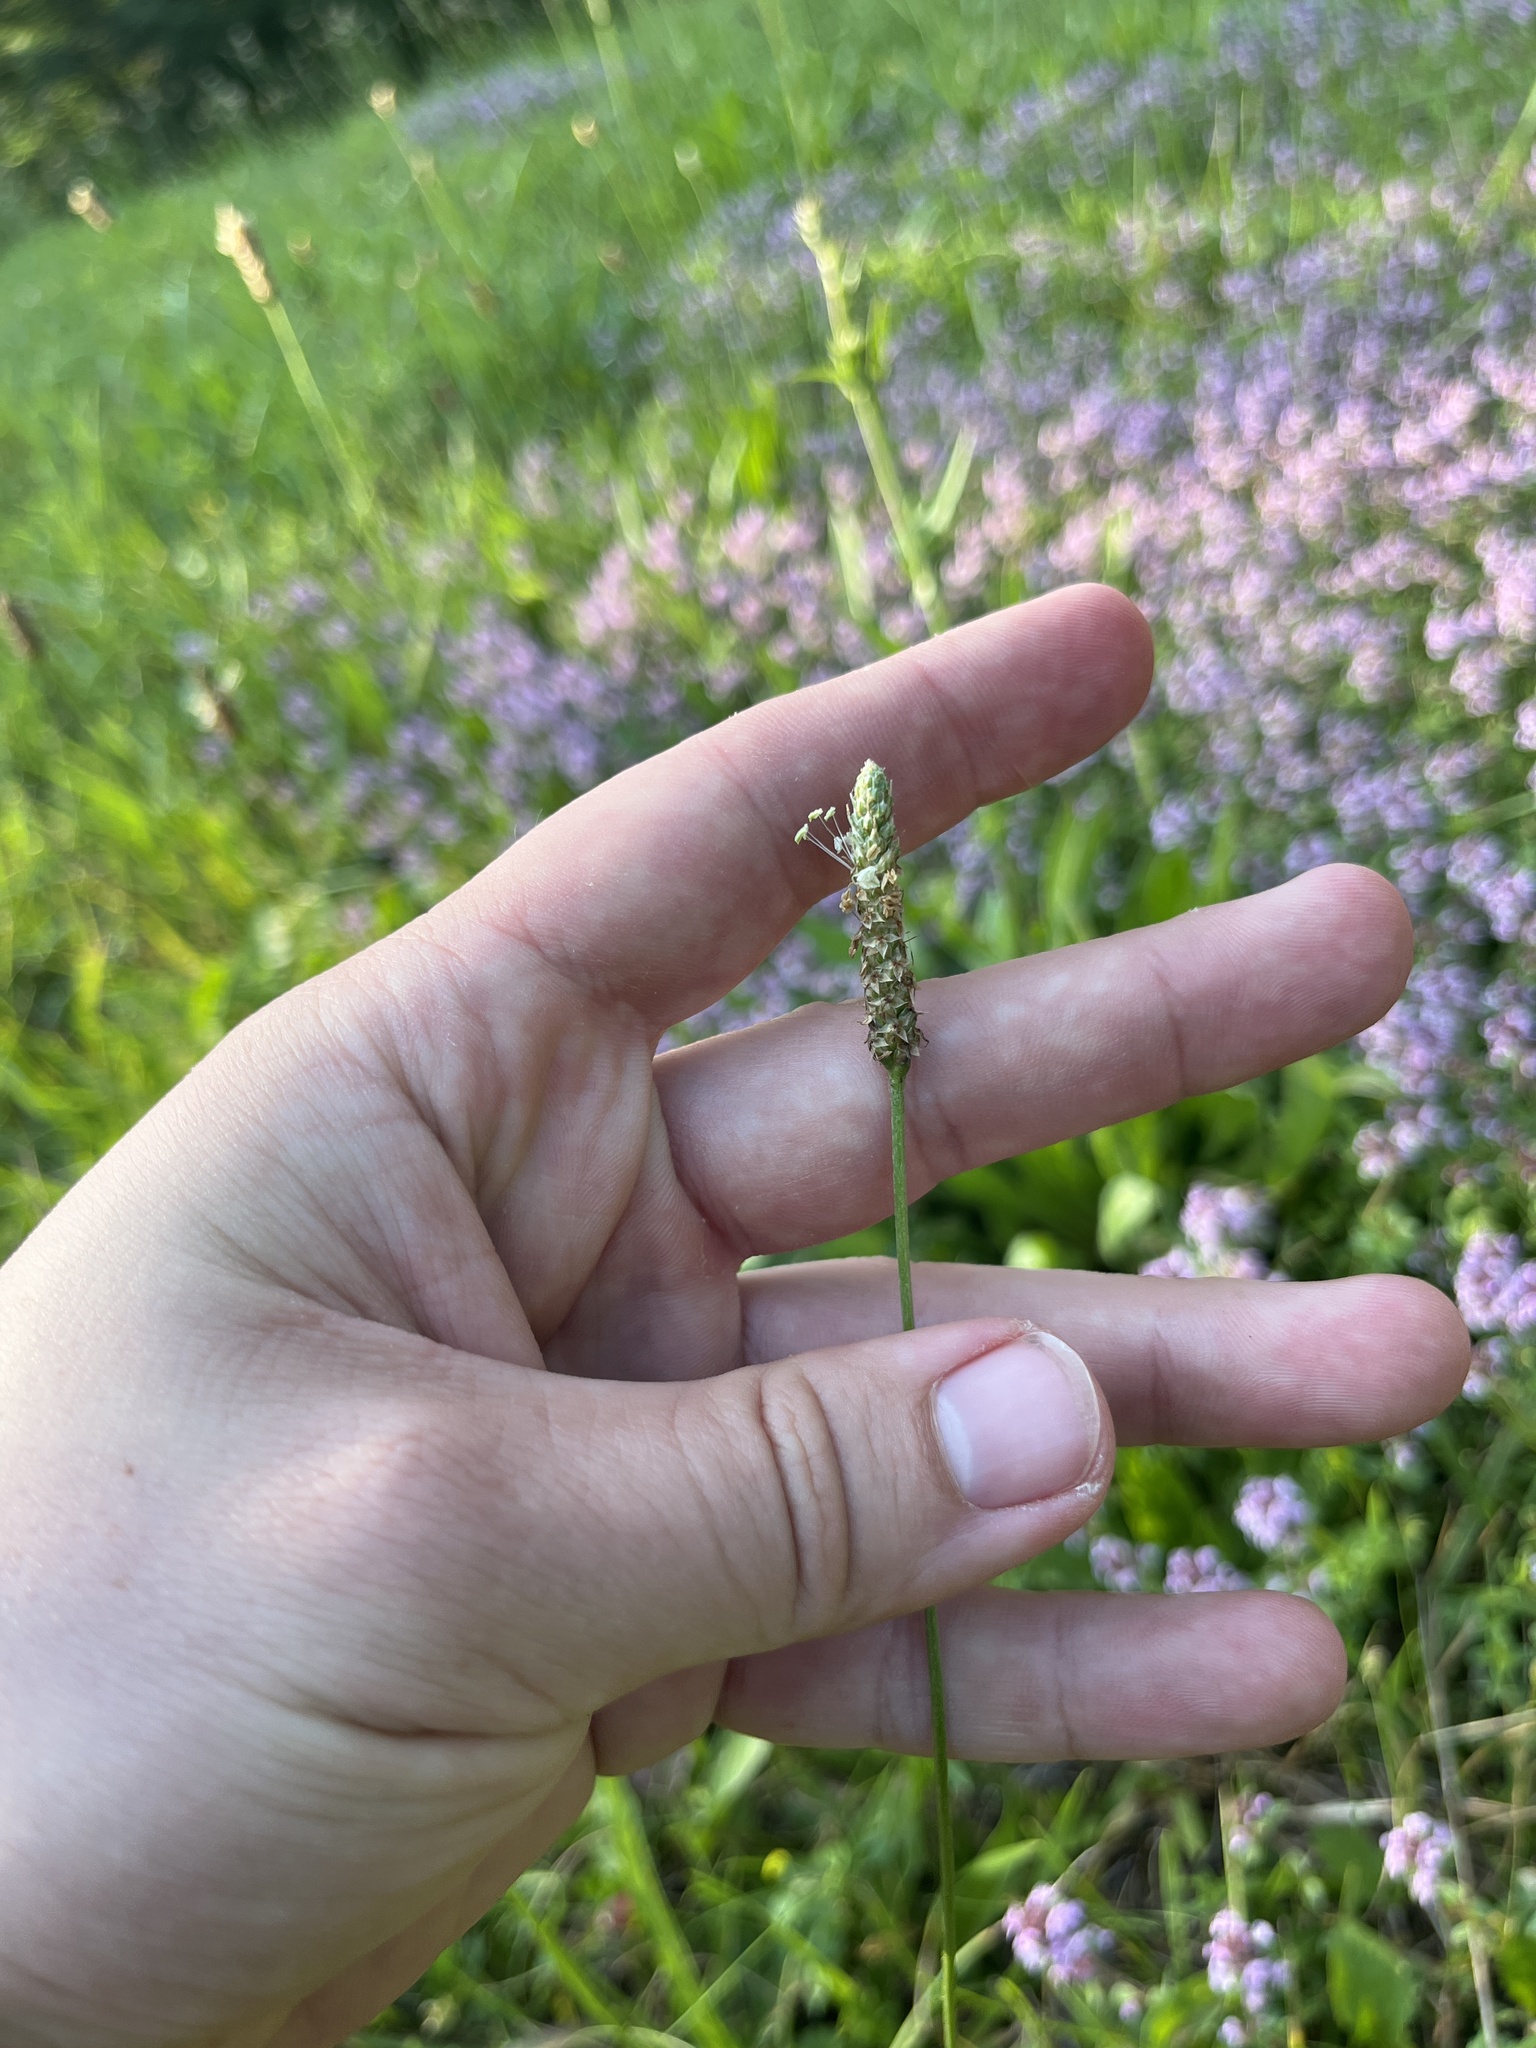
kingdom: Plantae
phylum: Tracheophyta
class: Magnoliopsida
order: Lamiales
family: Plantaginaceae
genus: Plantago
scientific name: Plantago lanceolata
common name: Ribwort plantain
